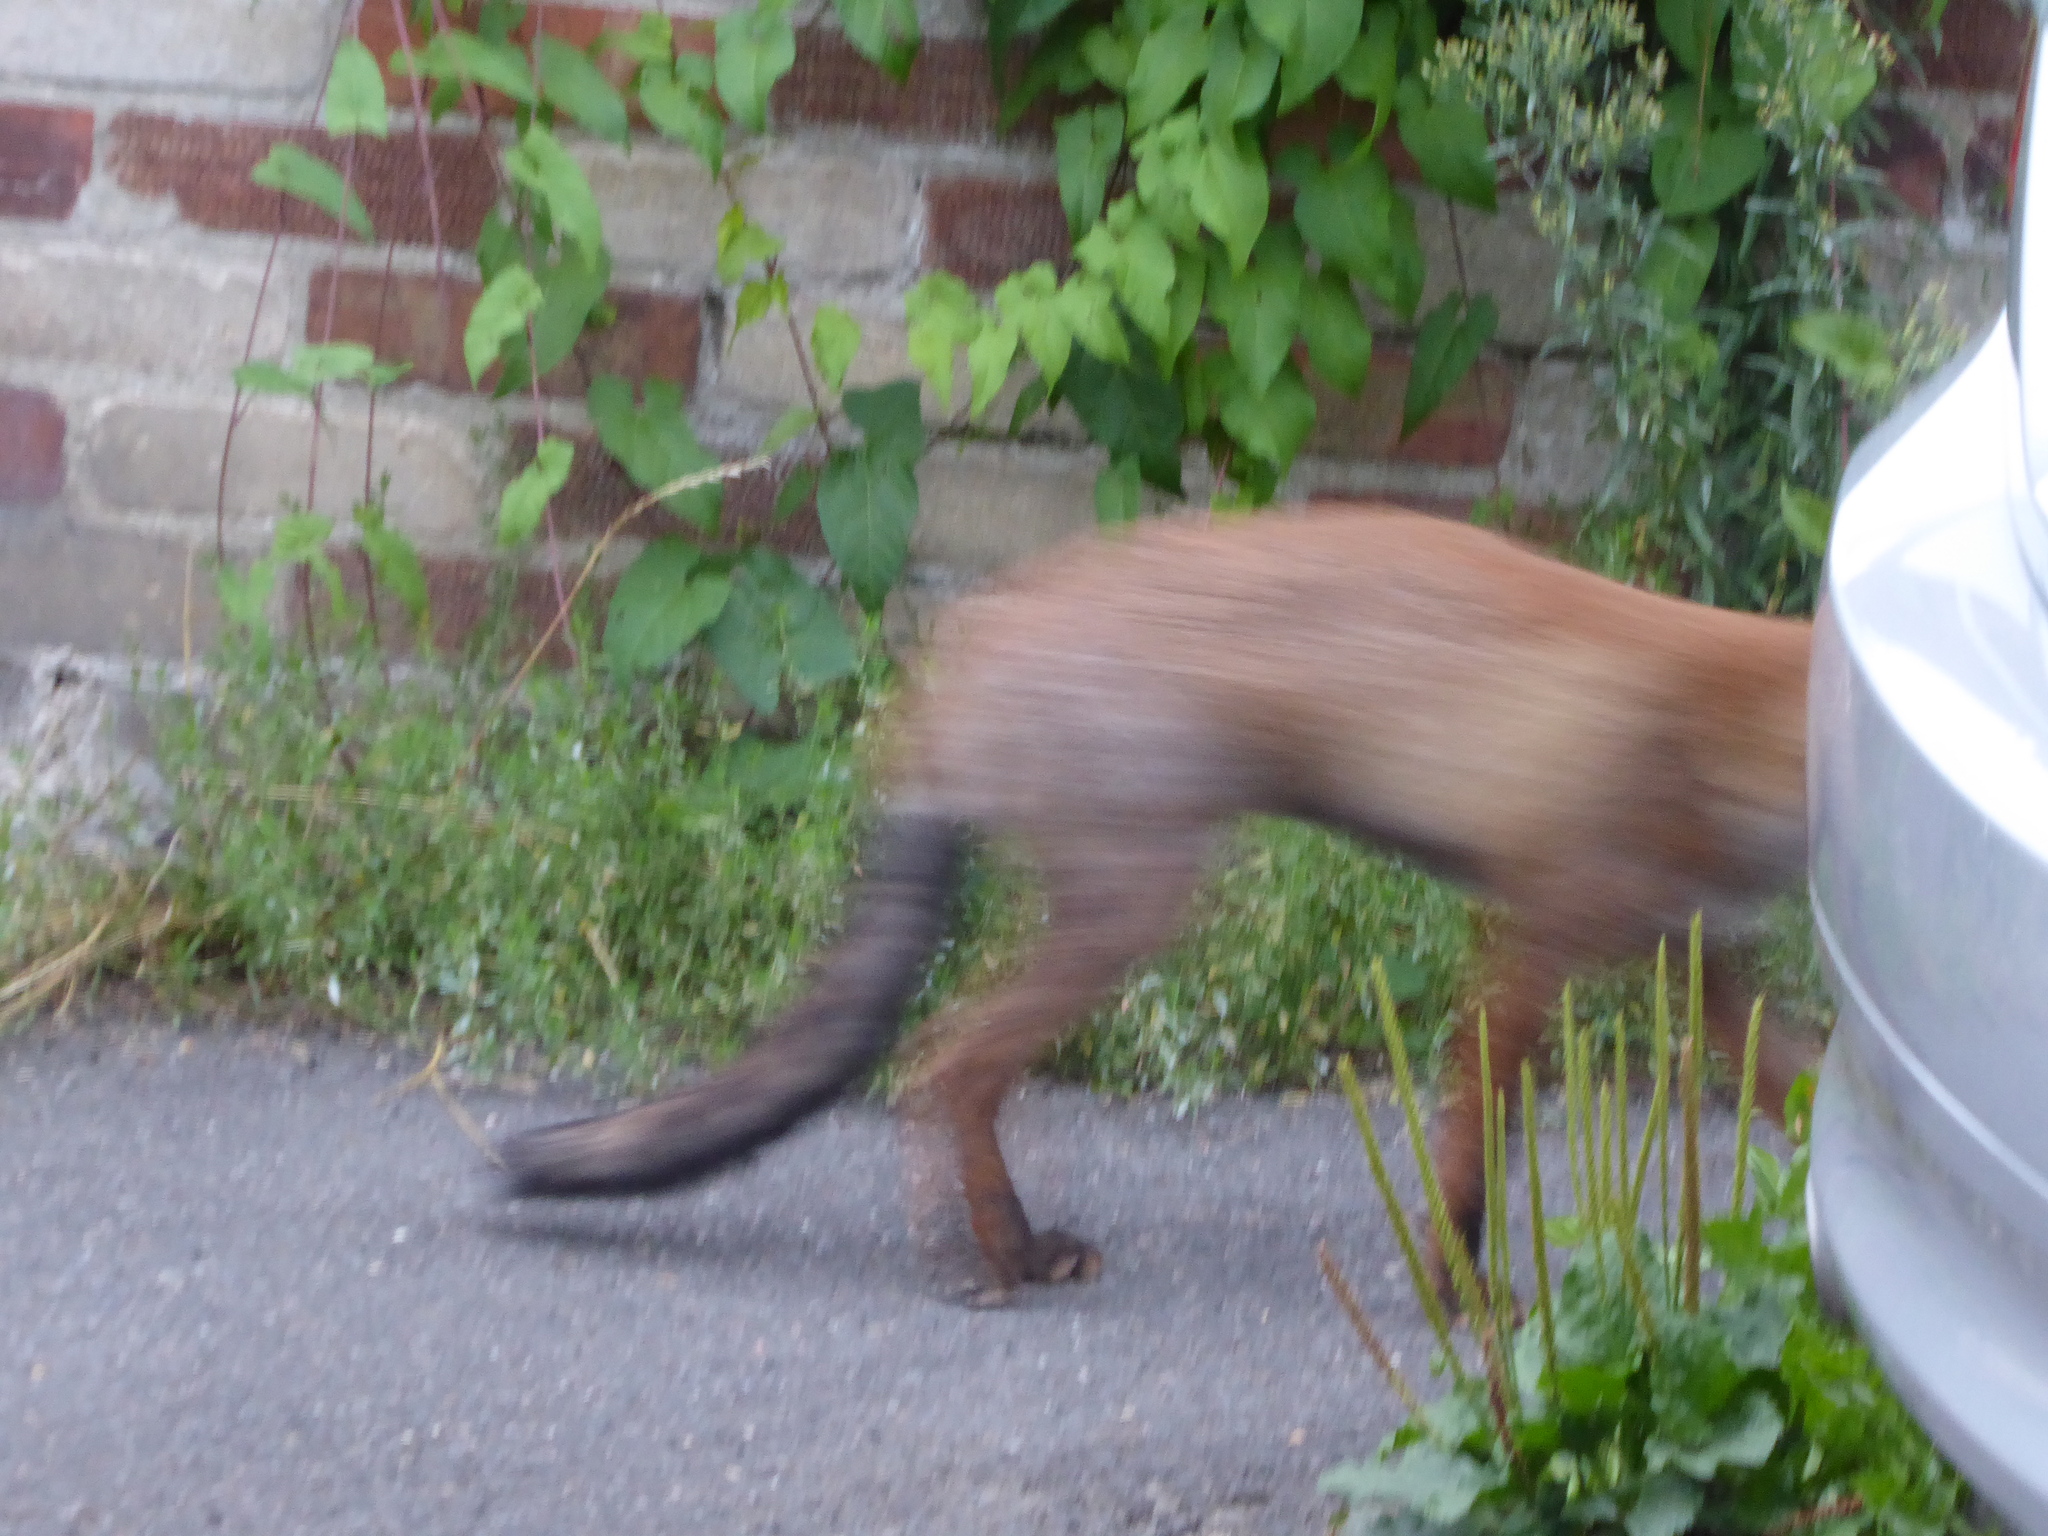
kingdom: Animalia
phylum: Chordata
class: Mammalia
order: Carnivora
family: Canidae
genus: Vulpes
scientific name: Vulpes vulpes
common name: Red fox
